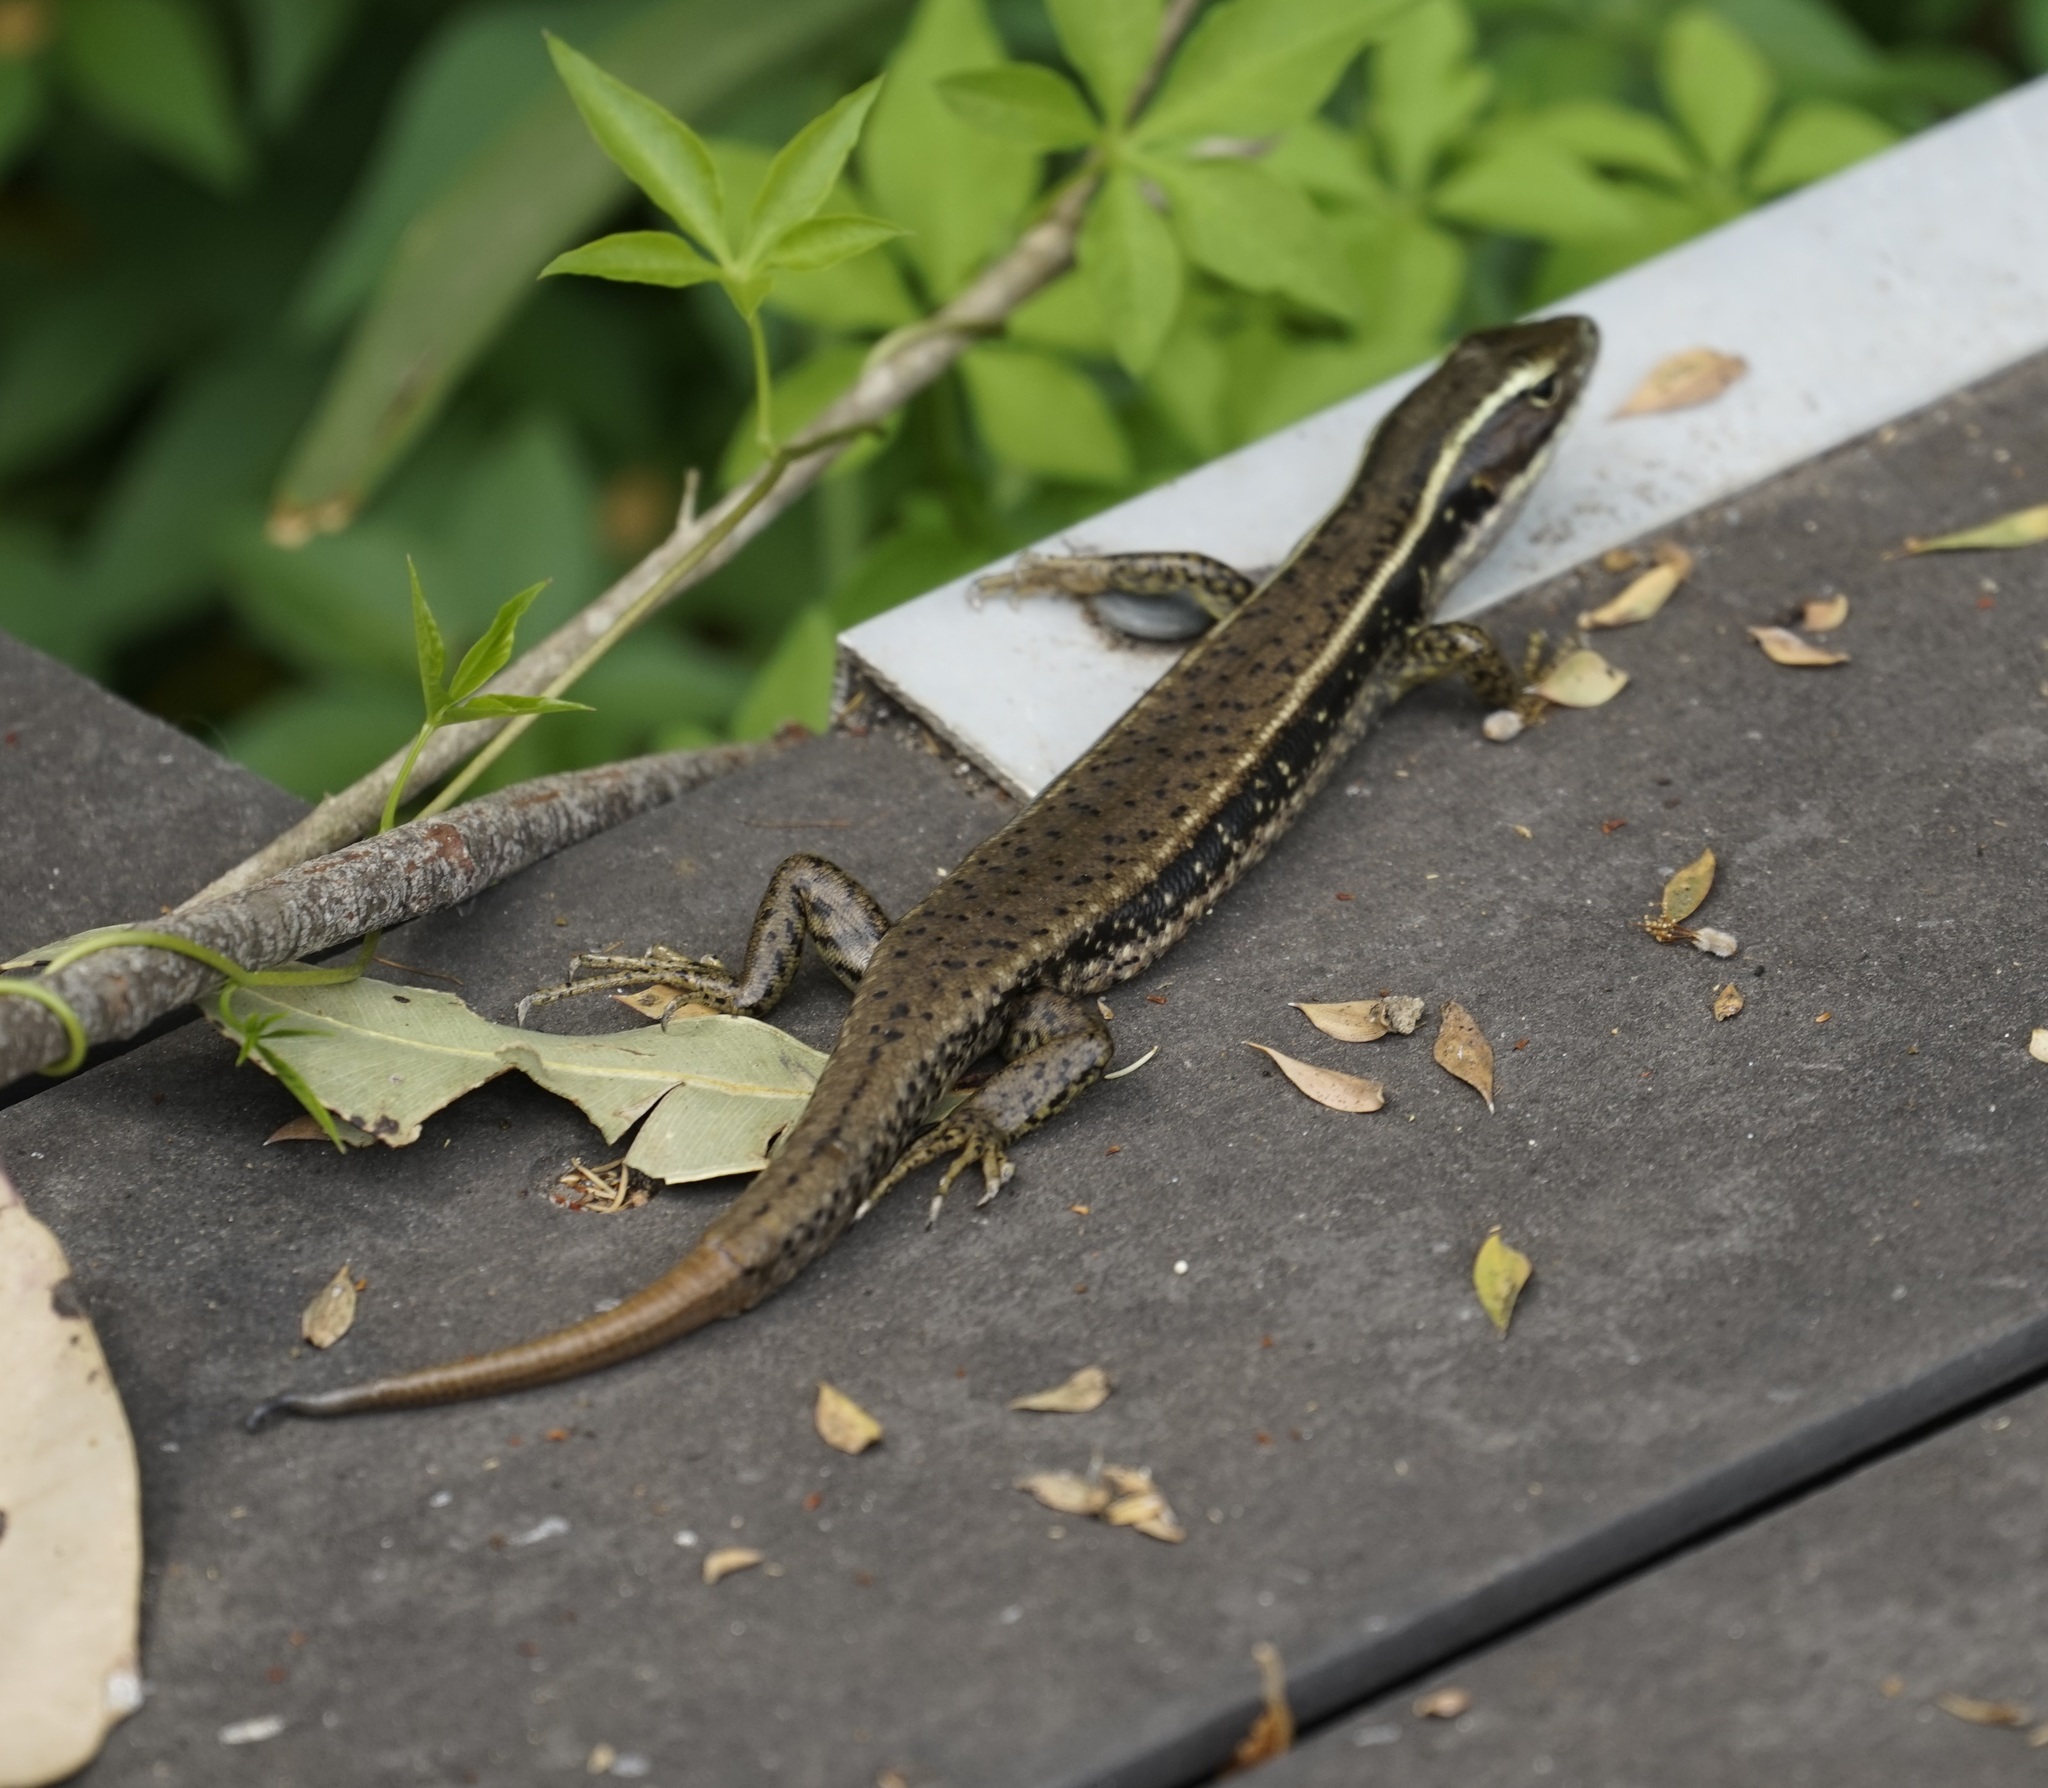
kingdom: Animalia
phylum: Chordata
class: Squamata
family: Scincidae
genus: Eulamprus
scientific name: Eulamprus quoyii
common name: Eastern water skink
